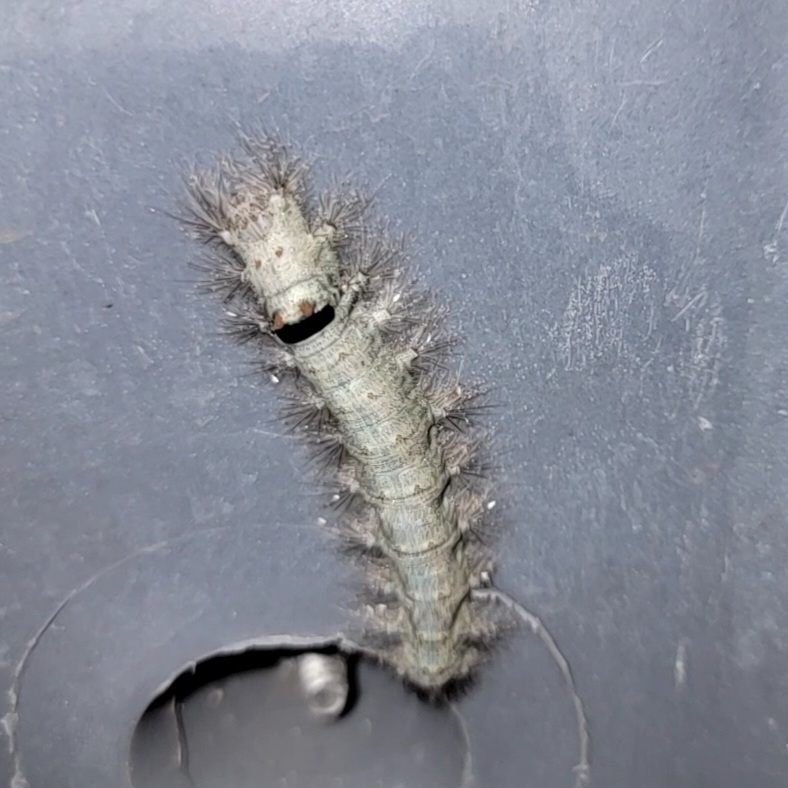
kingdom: Animalia
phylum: Arthropoda
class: Insecta
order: Lepidoptera
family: Lasiocampidae
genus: Tolype
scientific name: Tolype velleda
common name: Large tolype moth
